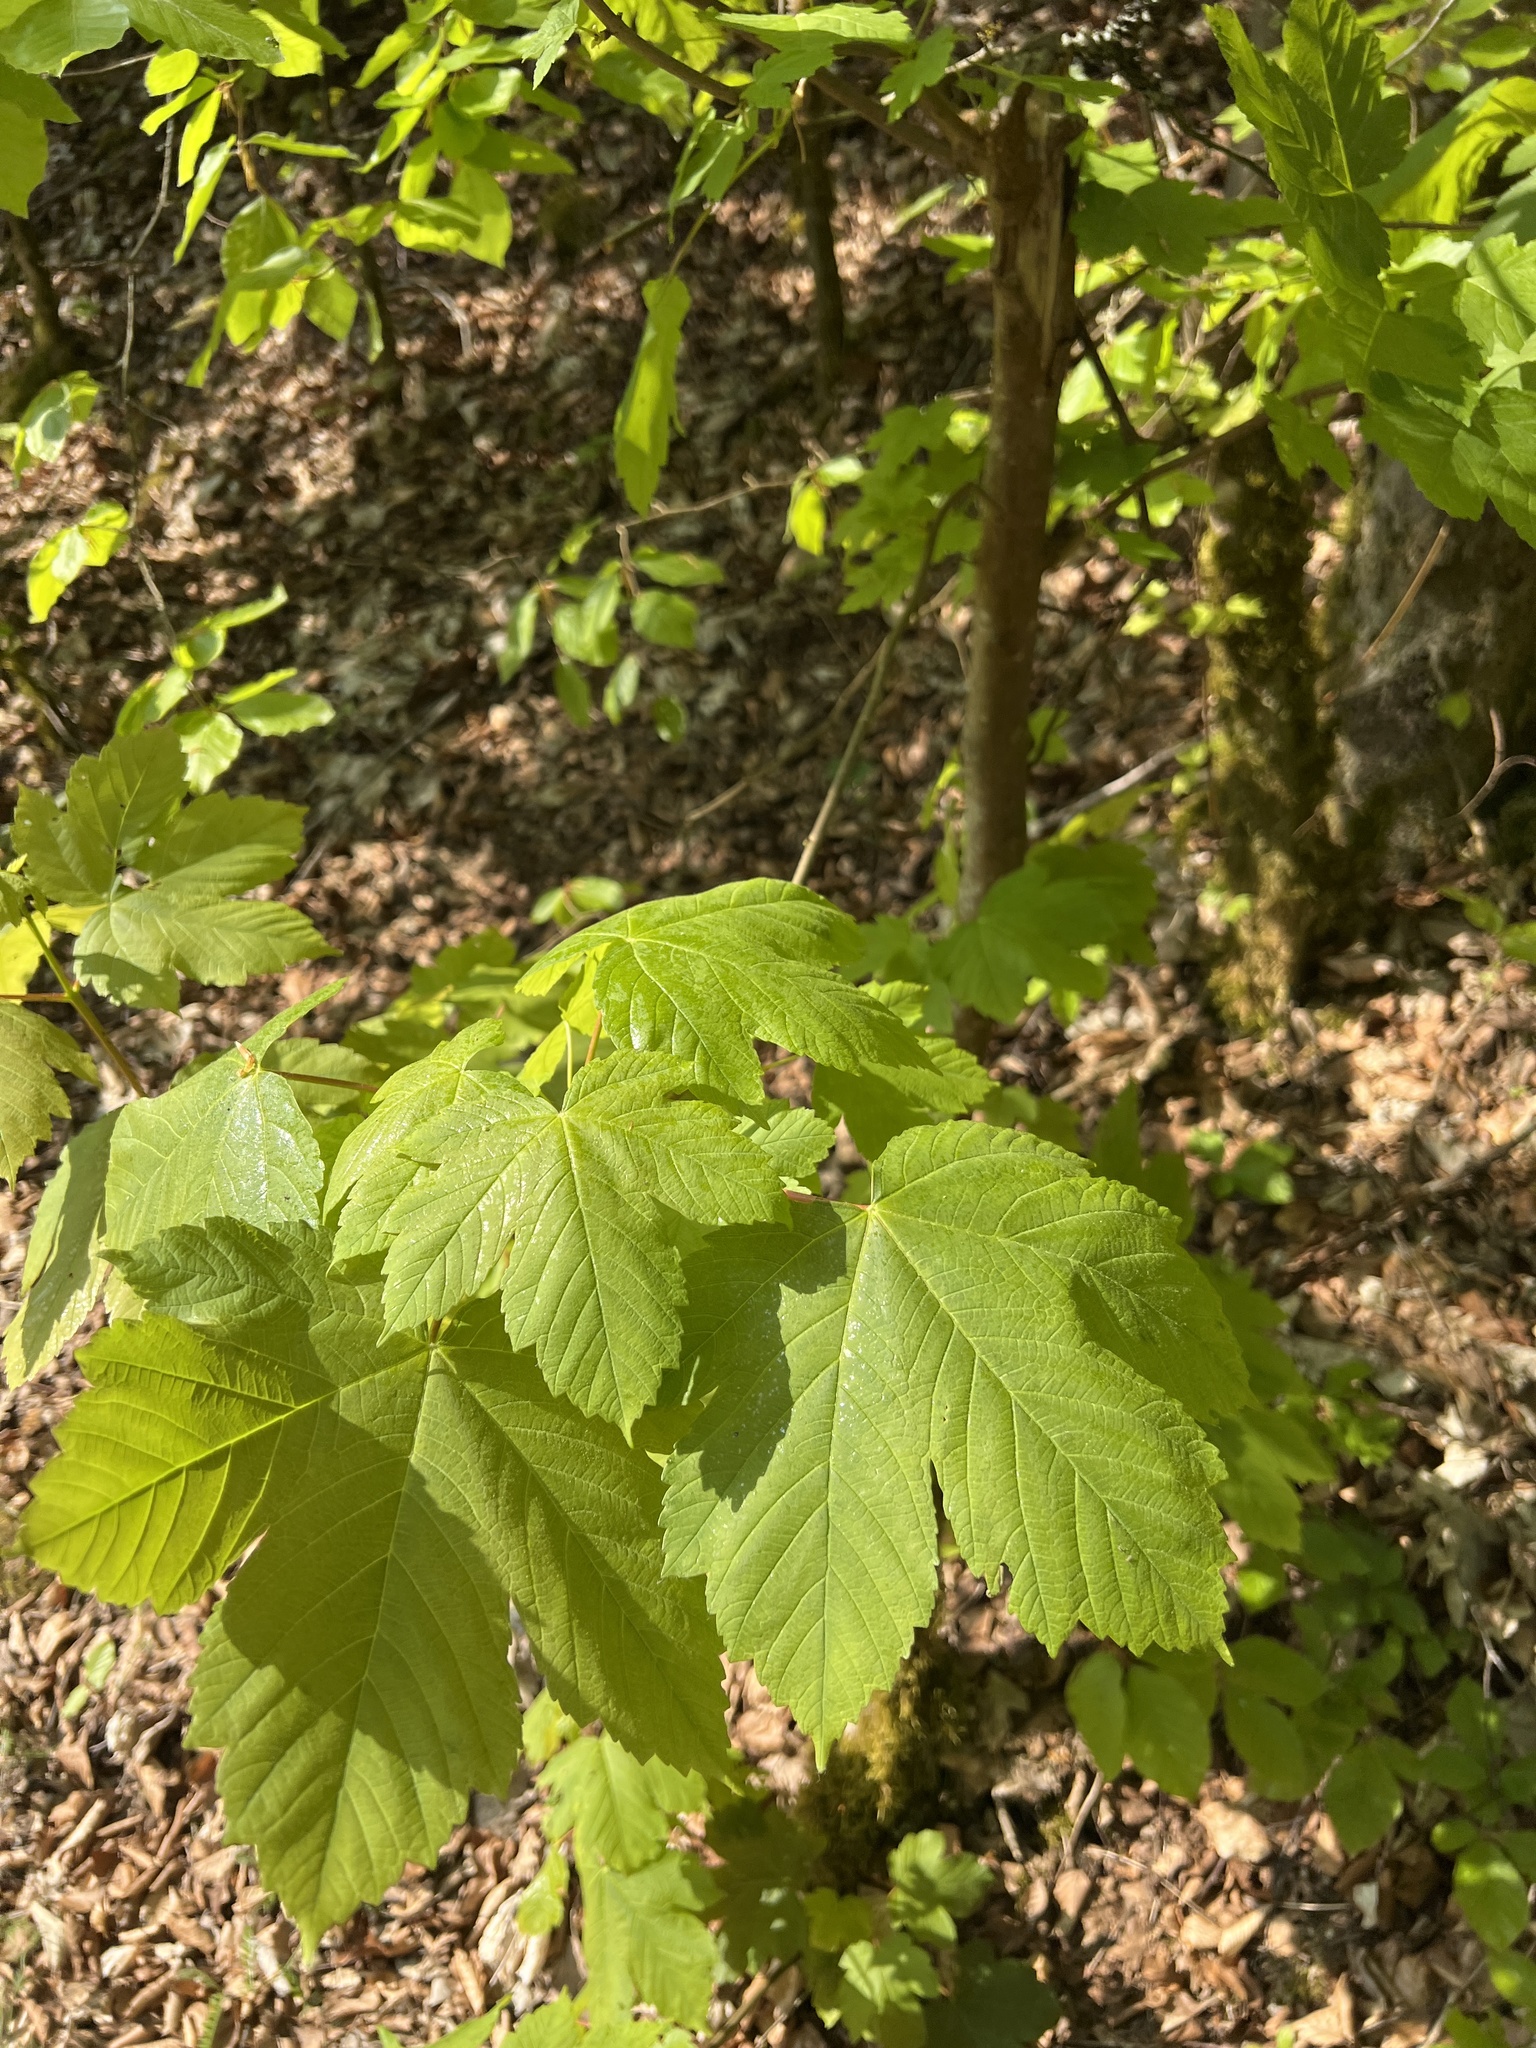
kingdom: Plantae
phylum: Tracheophyta
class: Magnoliopsida
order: Sapindales
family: Sapindaceae
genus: Acer
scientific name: Acer pseudoplatanus
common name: Sycamore
